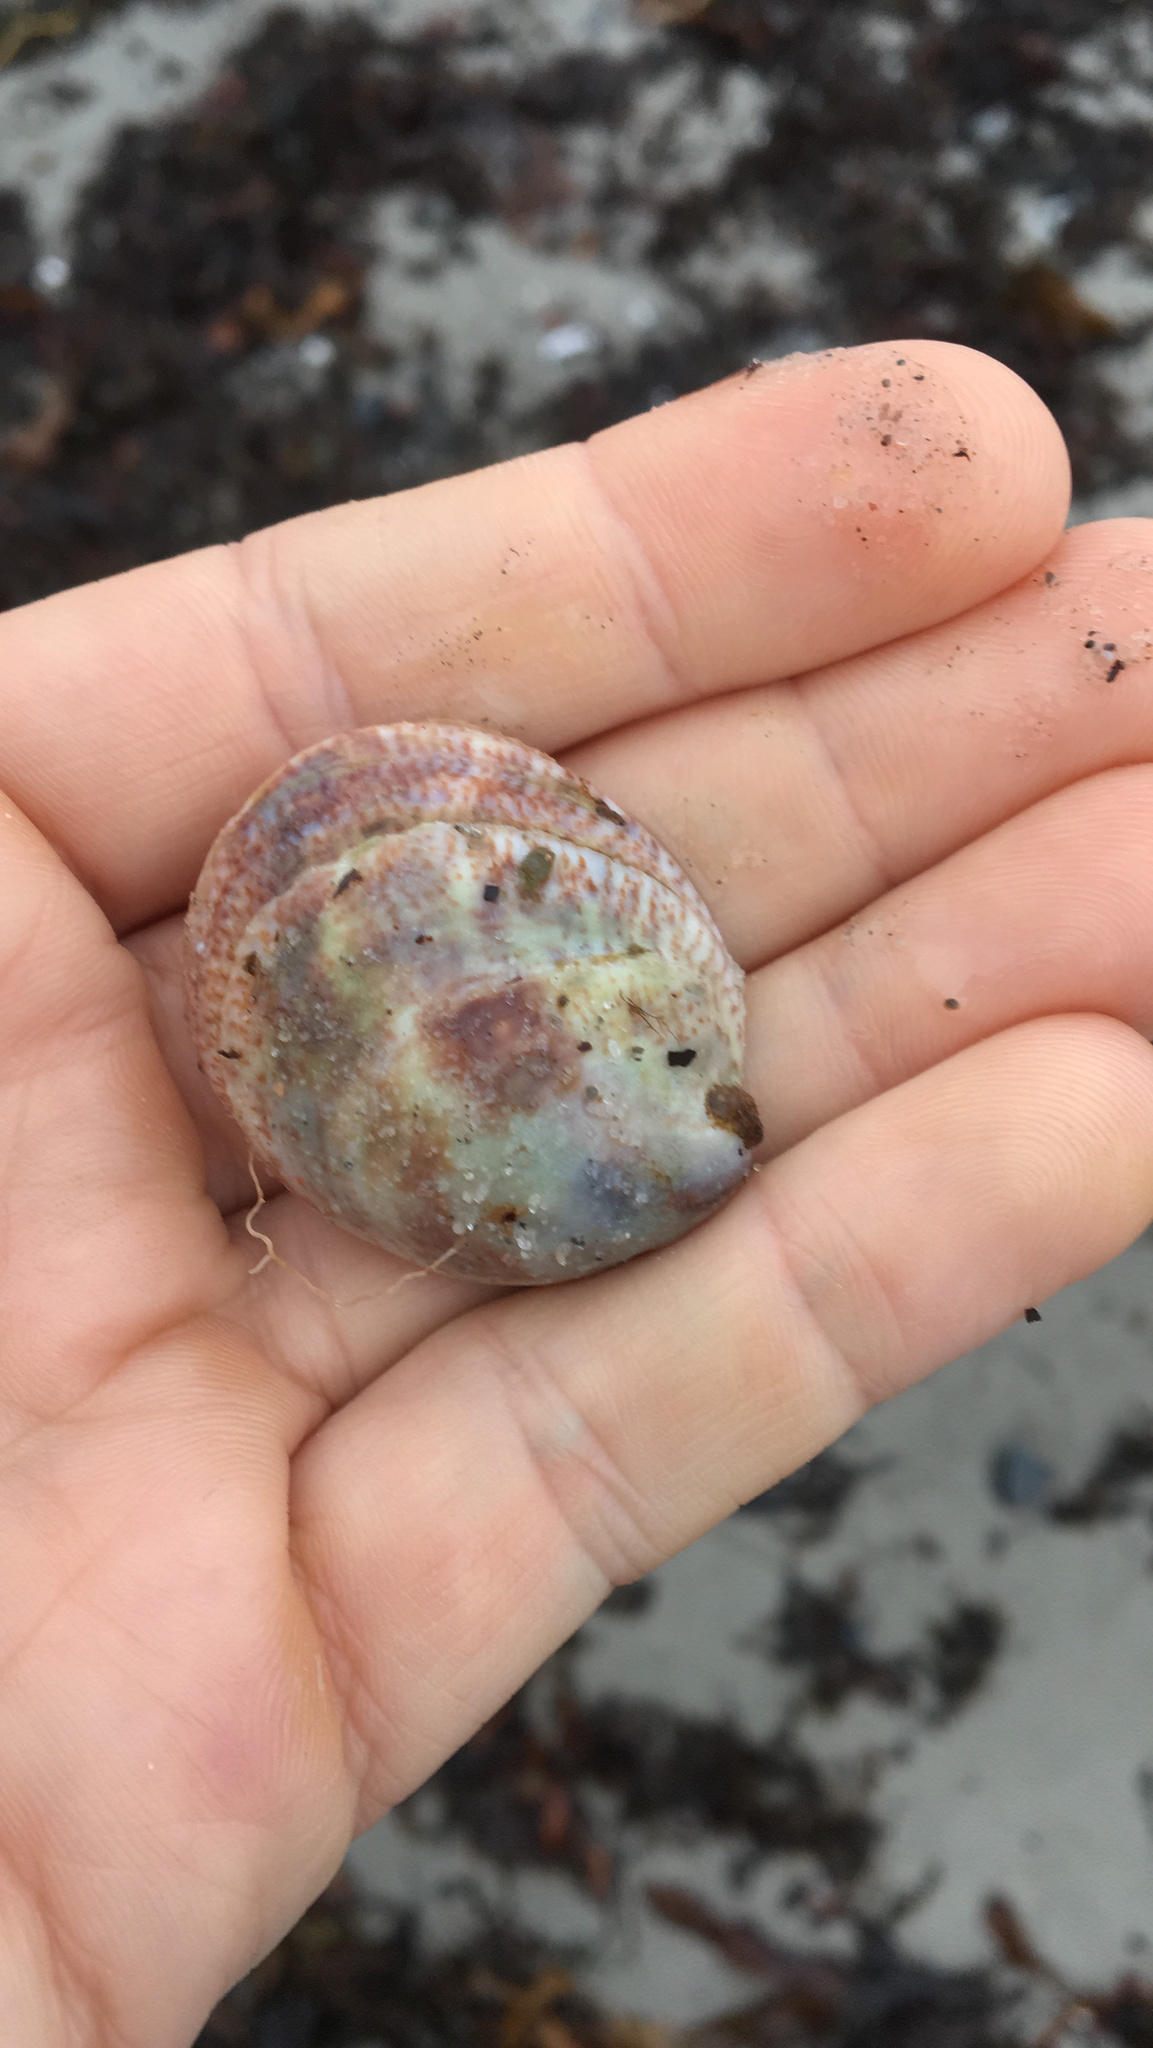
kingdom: Animalia
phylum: Mollusca
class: Gastropoda
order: Littorinimorpha
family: Calyptraeidae
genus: Crepidula
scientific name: Crepidula fornicata
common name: Slipper limpet
